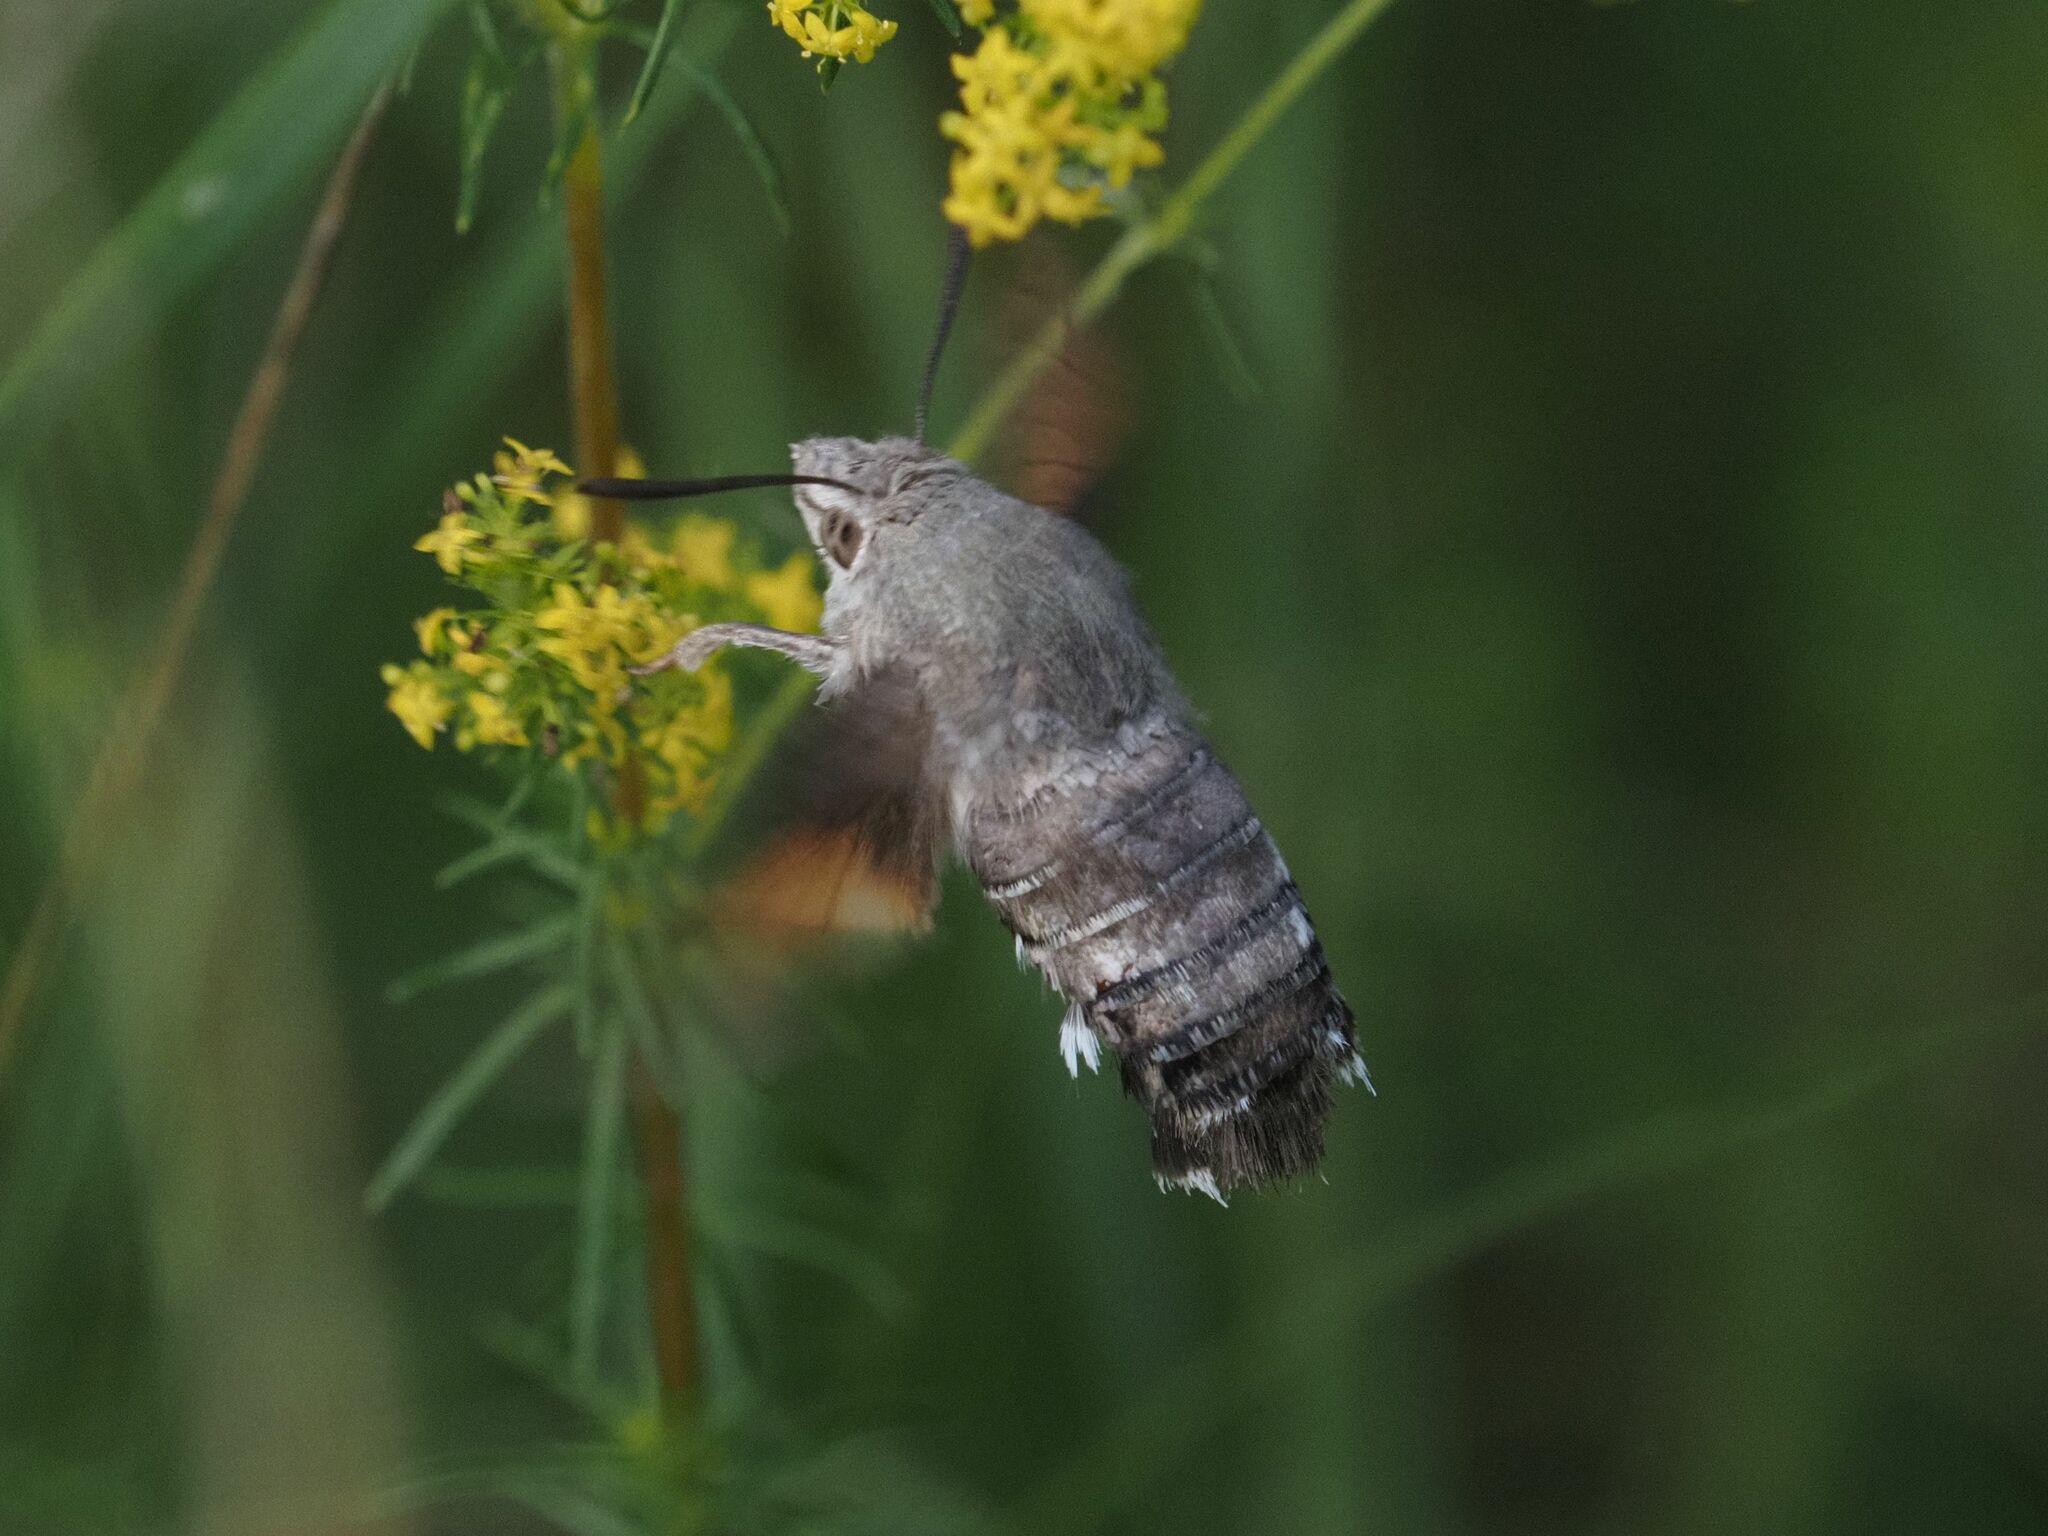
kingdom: Animalia
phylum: Arthropoda
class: Insecta
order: Lepidoptera
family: Sphingidae
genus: Macroglossum
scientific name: Macroglossum stellatarum
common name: Humming-bird hawk-moth
